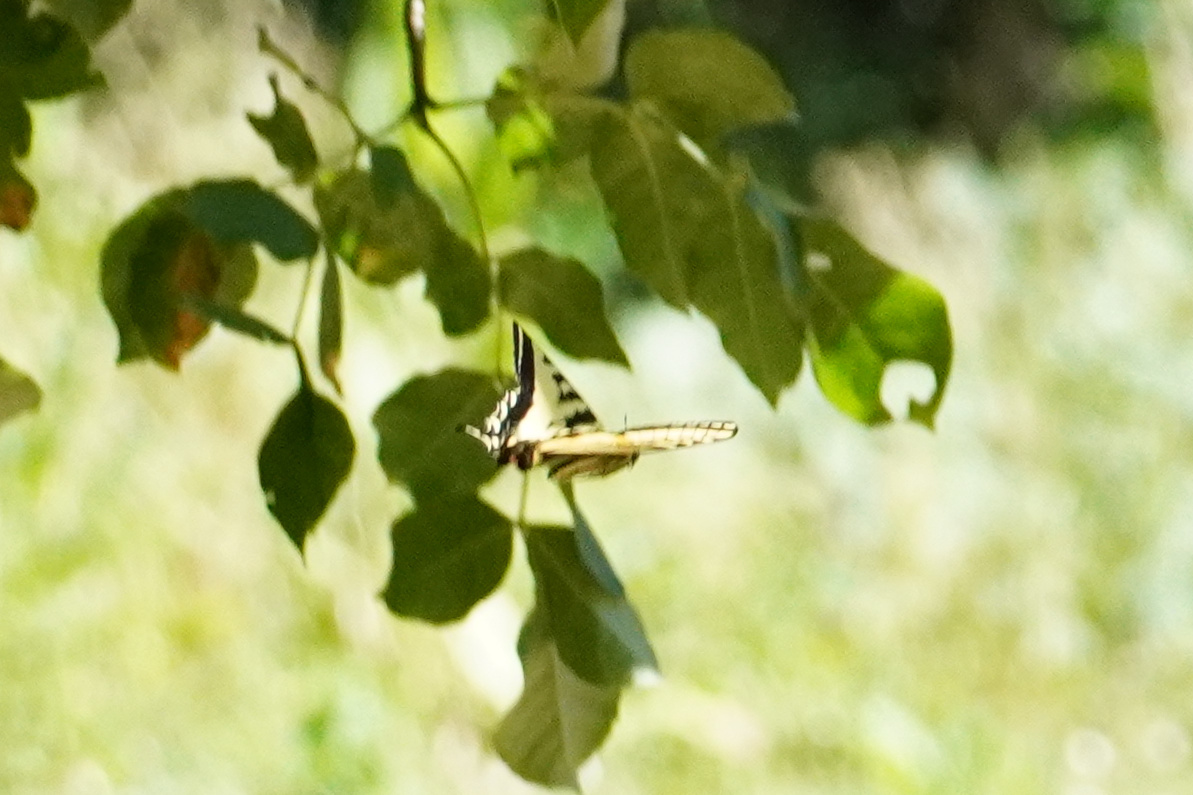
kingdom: Animalia
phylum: Arthropoda
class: Insecta
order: Lepidoptera
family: Papilionidae
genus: Papilio
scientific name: Papilio rutulus
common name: Western tiger swallowtail
